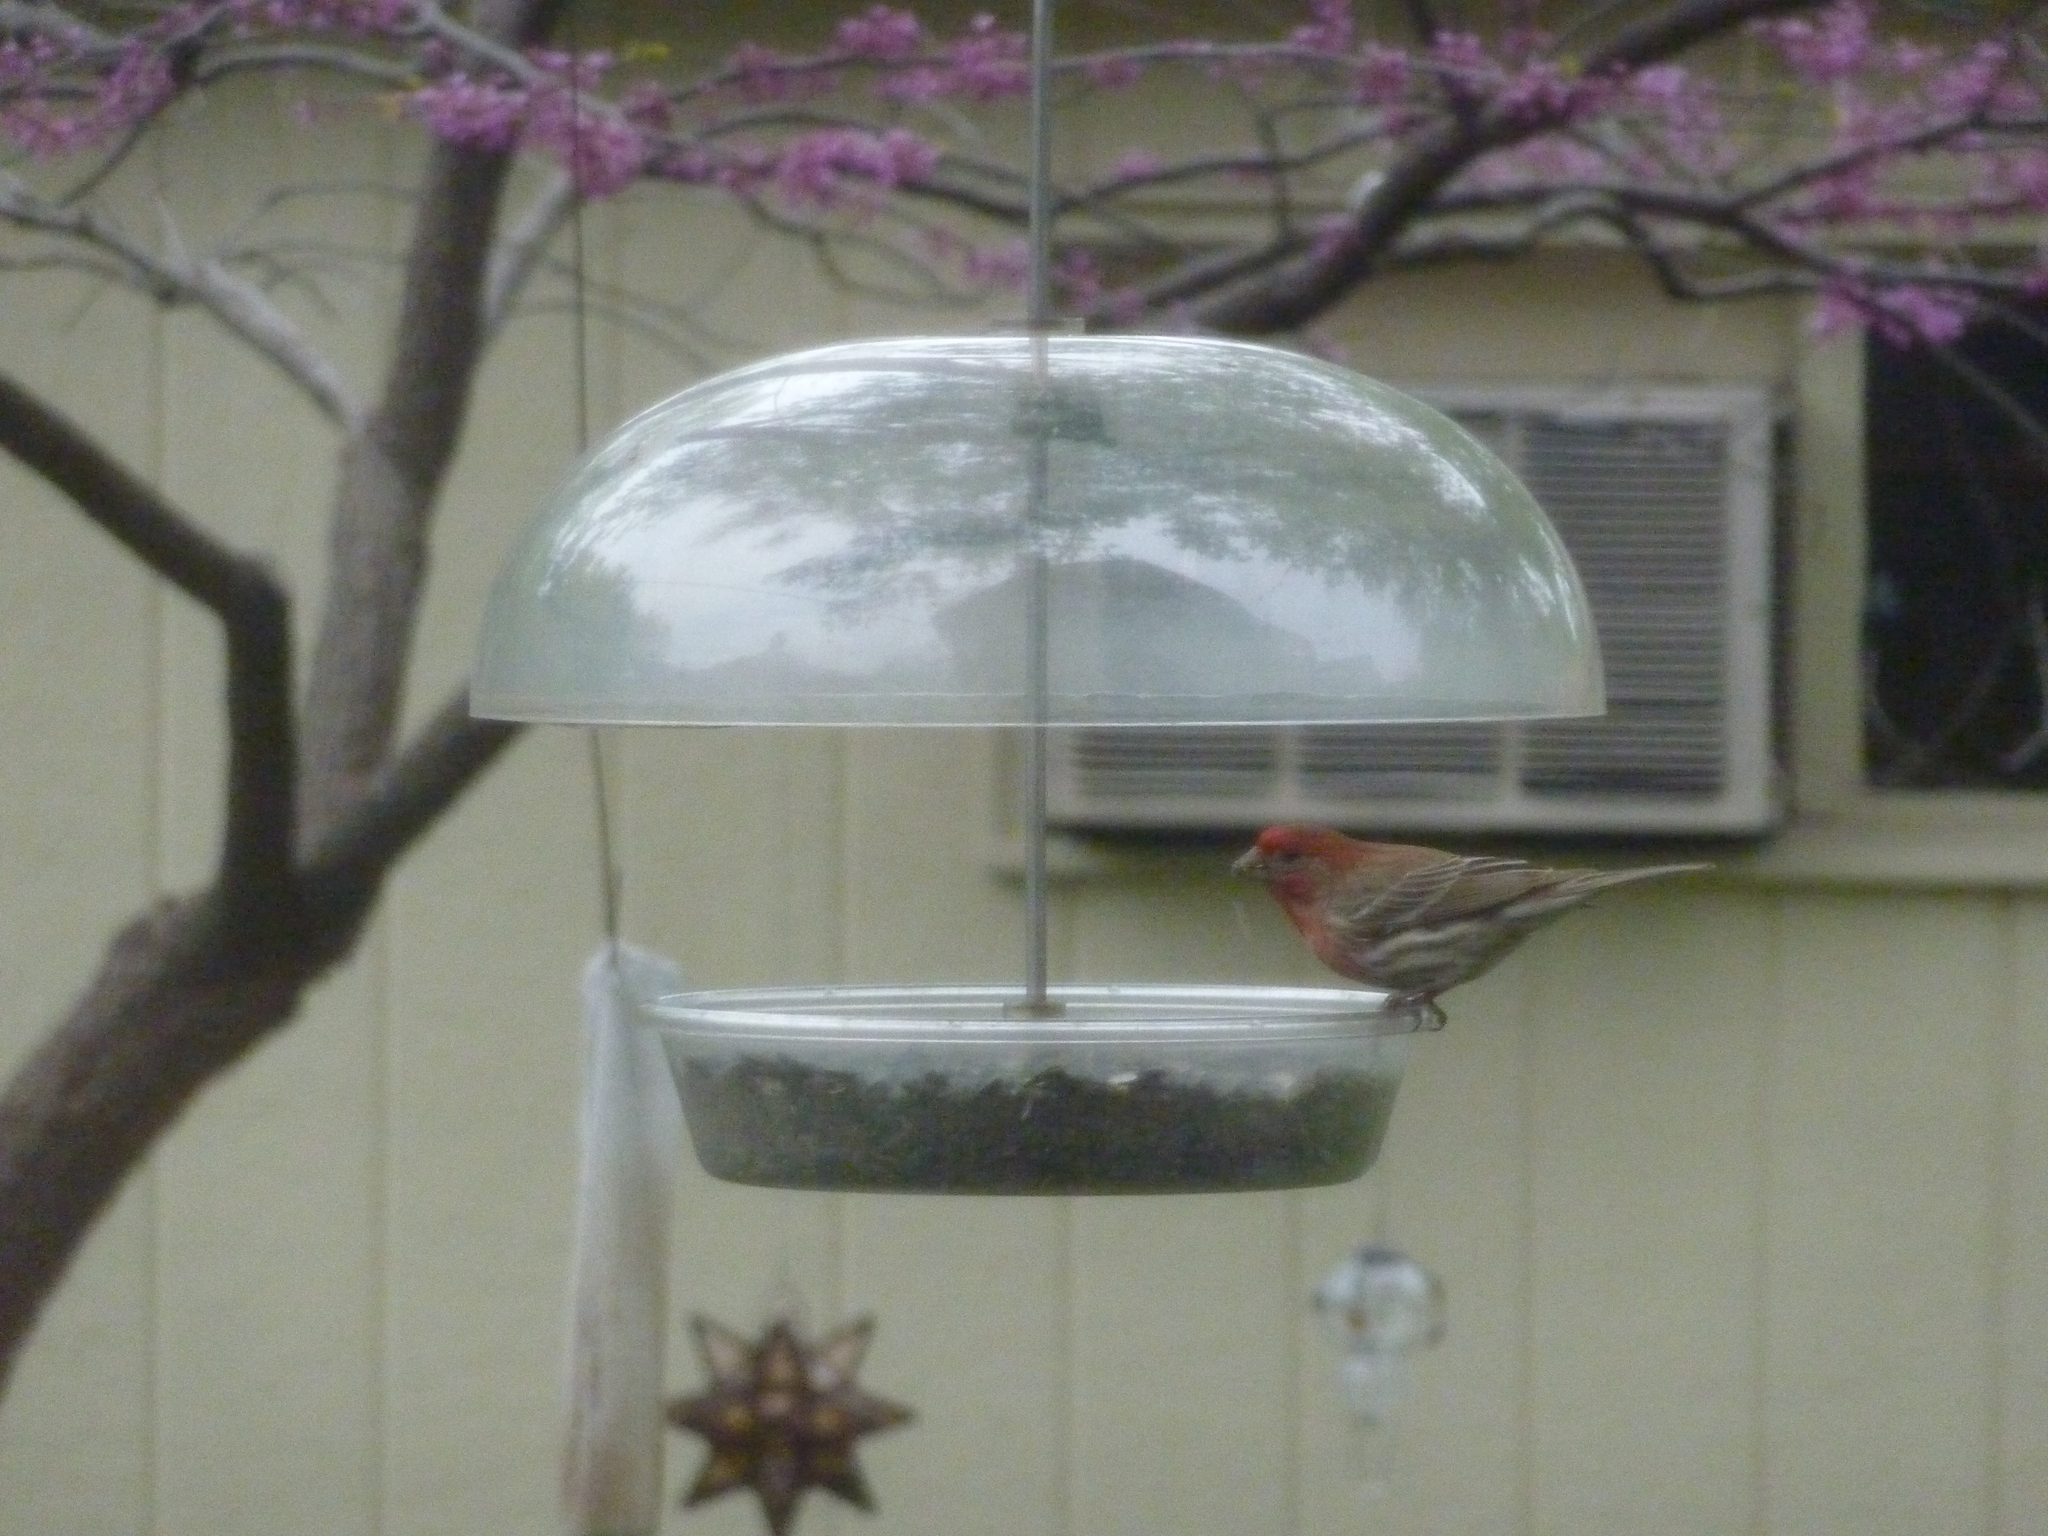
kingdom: Animalia
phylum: Chordata
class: Aves
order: Passeriformes
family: Fringillidae
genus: Haemorhous
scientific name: Haemorhous mexicanus
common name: House finch
